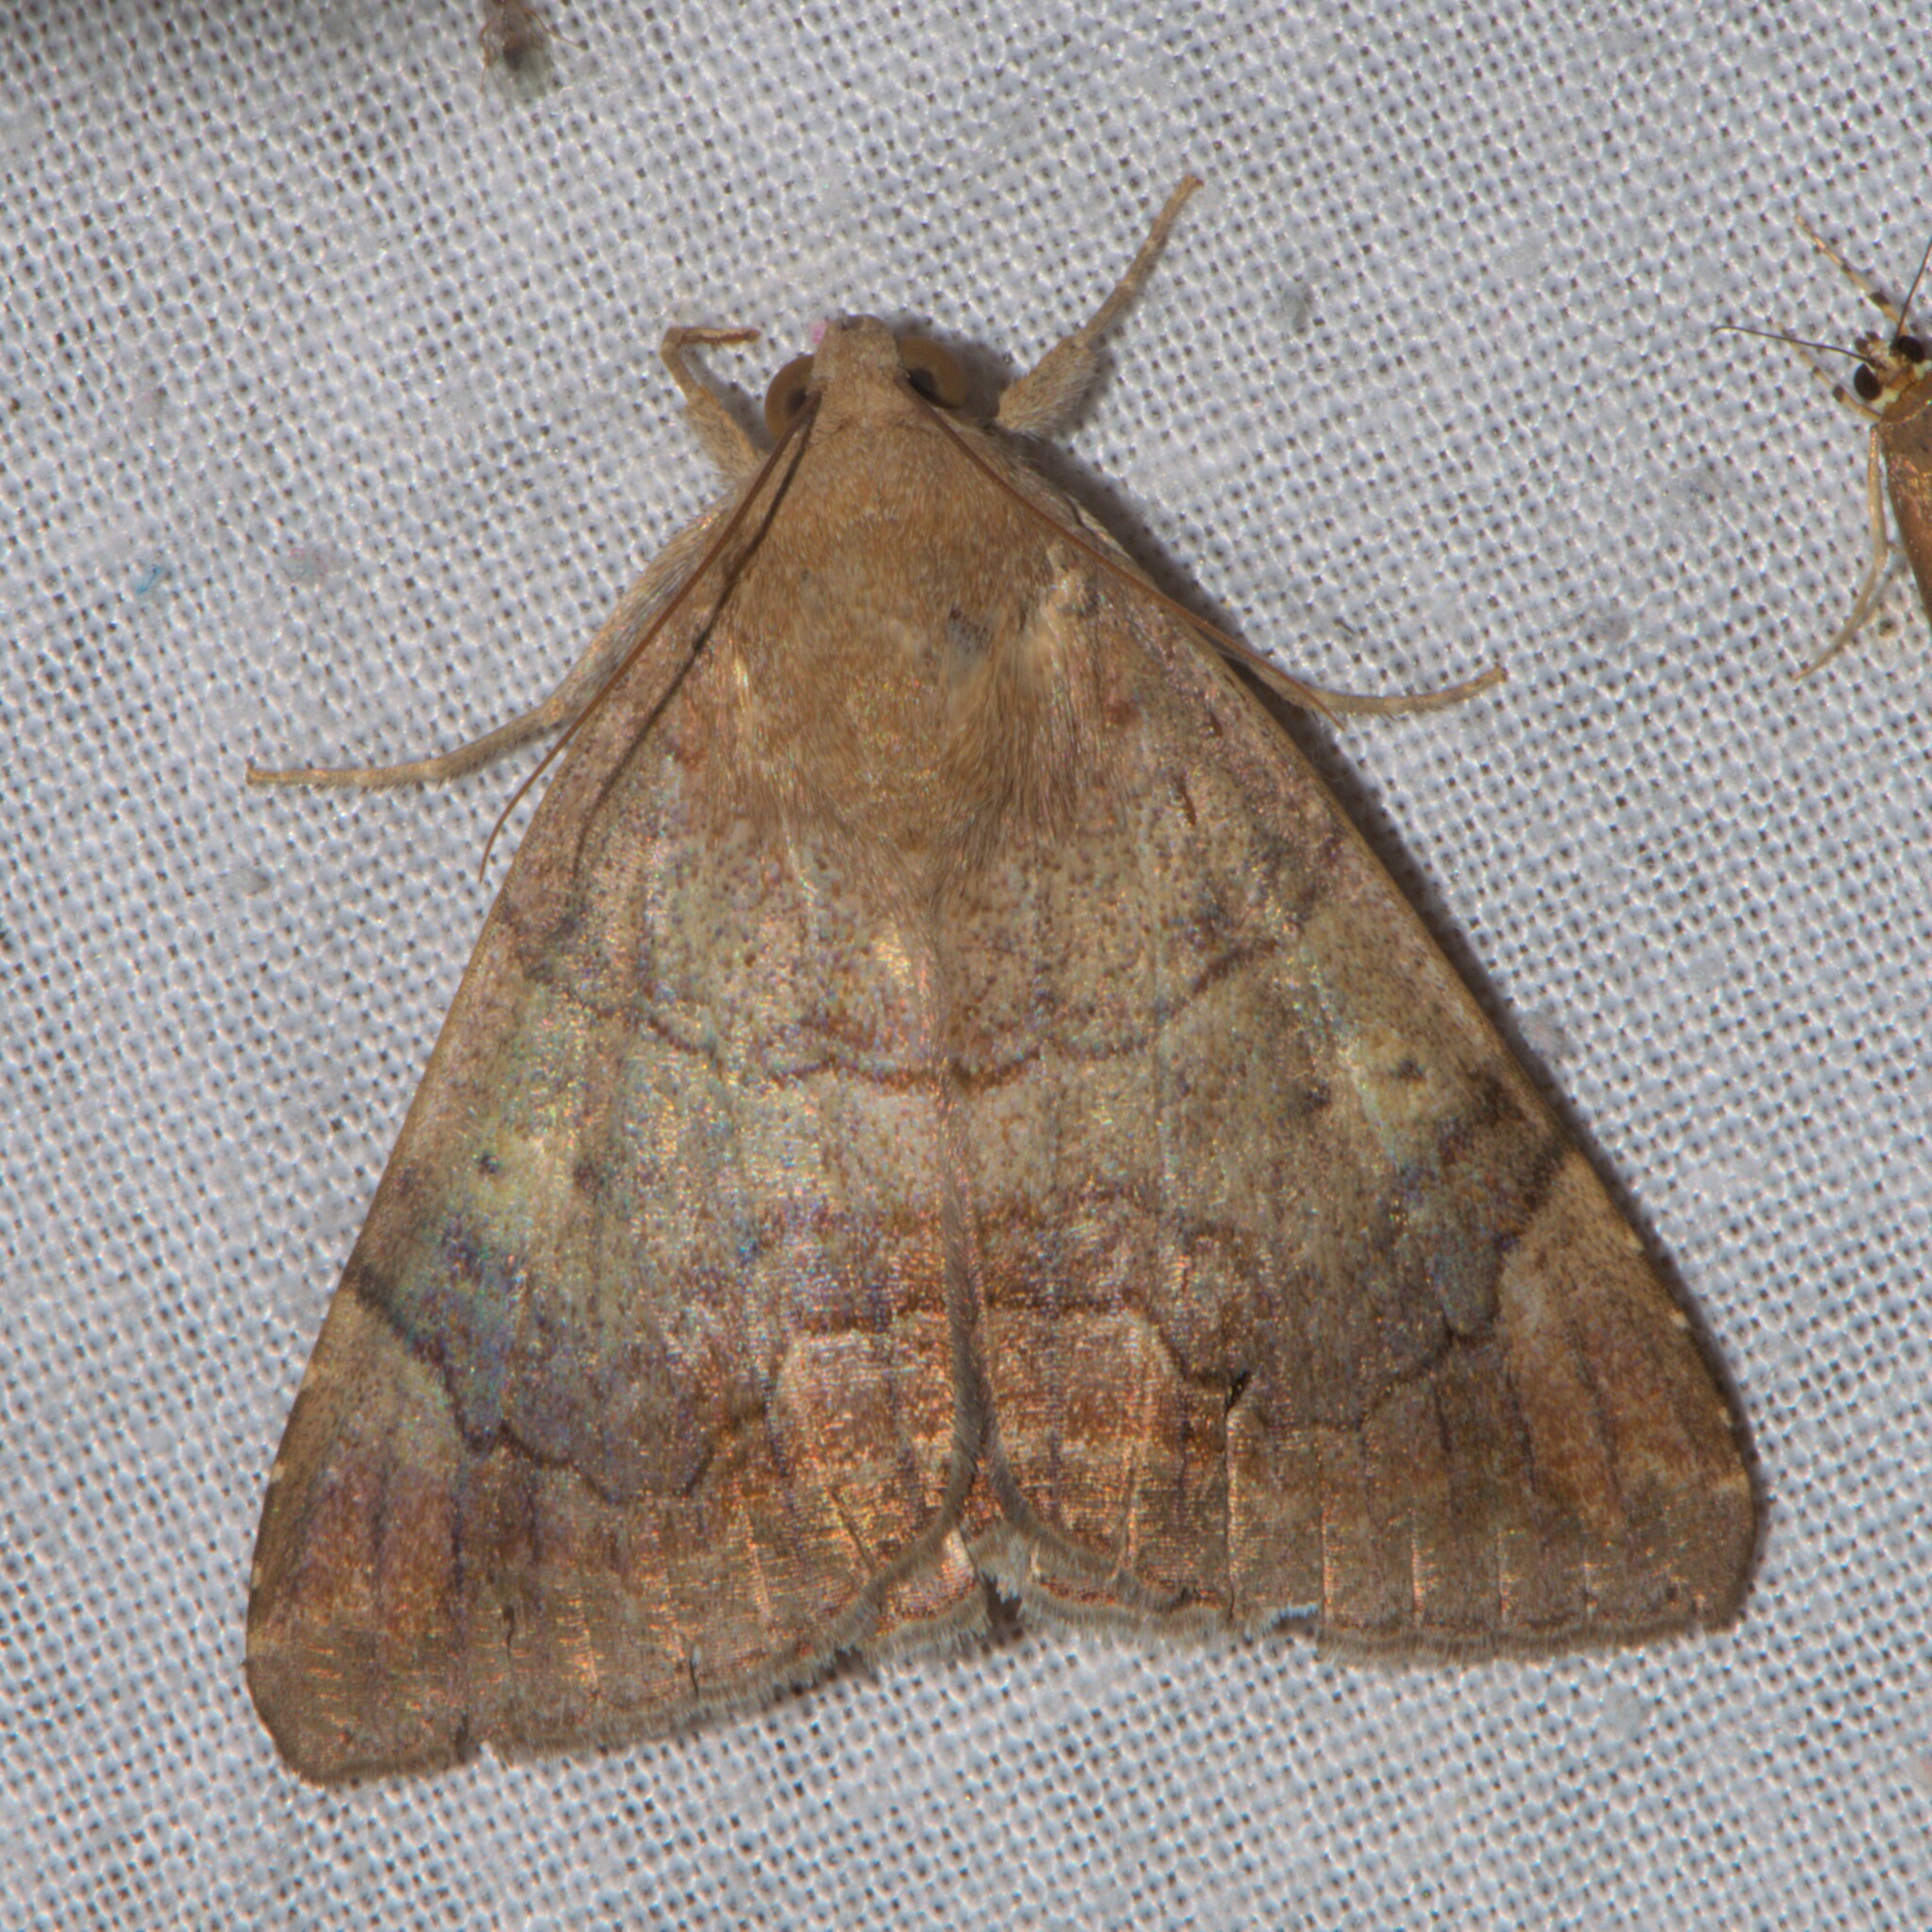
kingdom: Animalia
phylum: Arthropoda
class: Insecta
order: Lepidoptera
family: Erebidae
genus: Achaea
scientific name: Achaea janata
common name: Croton caterpillar
